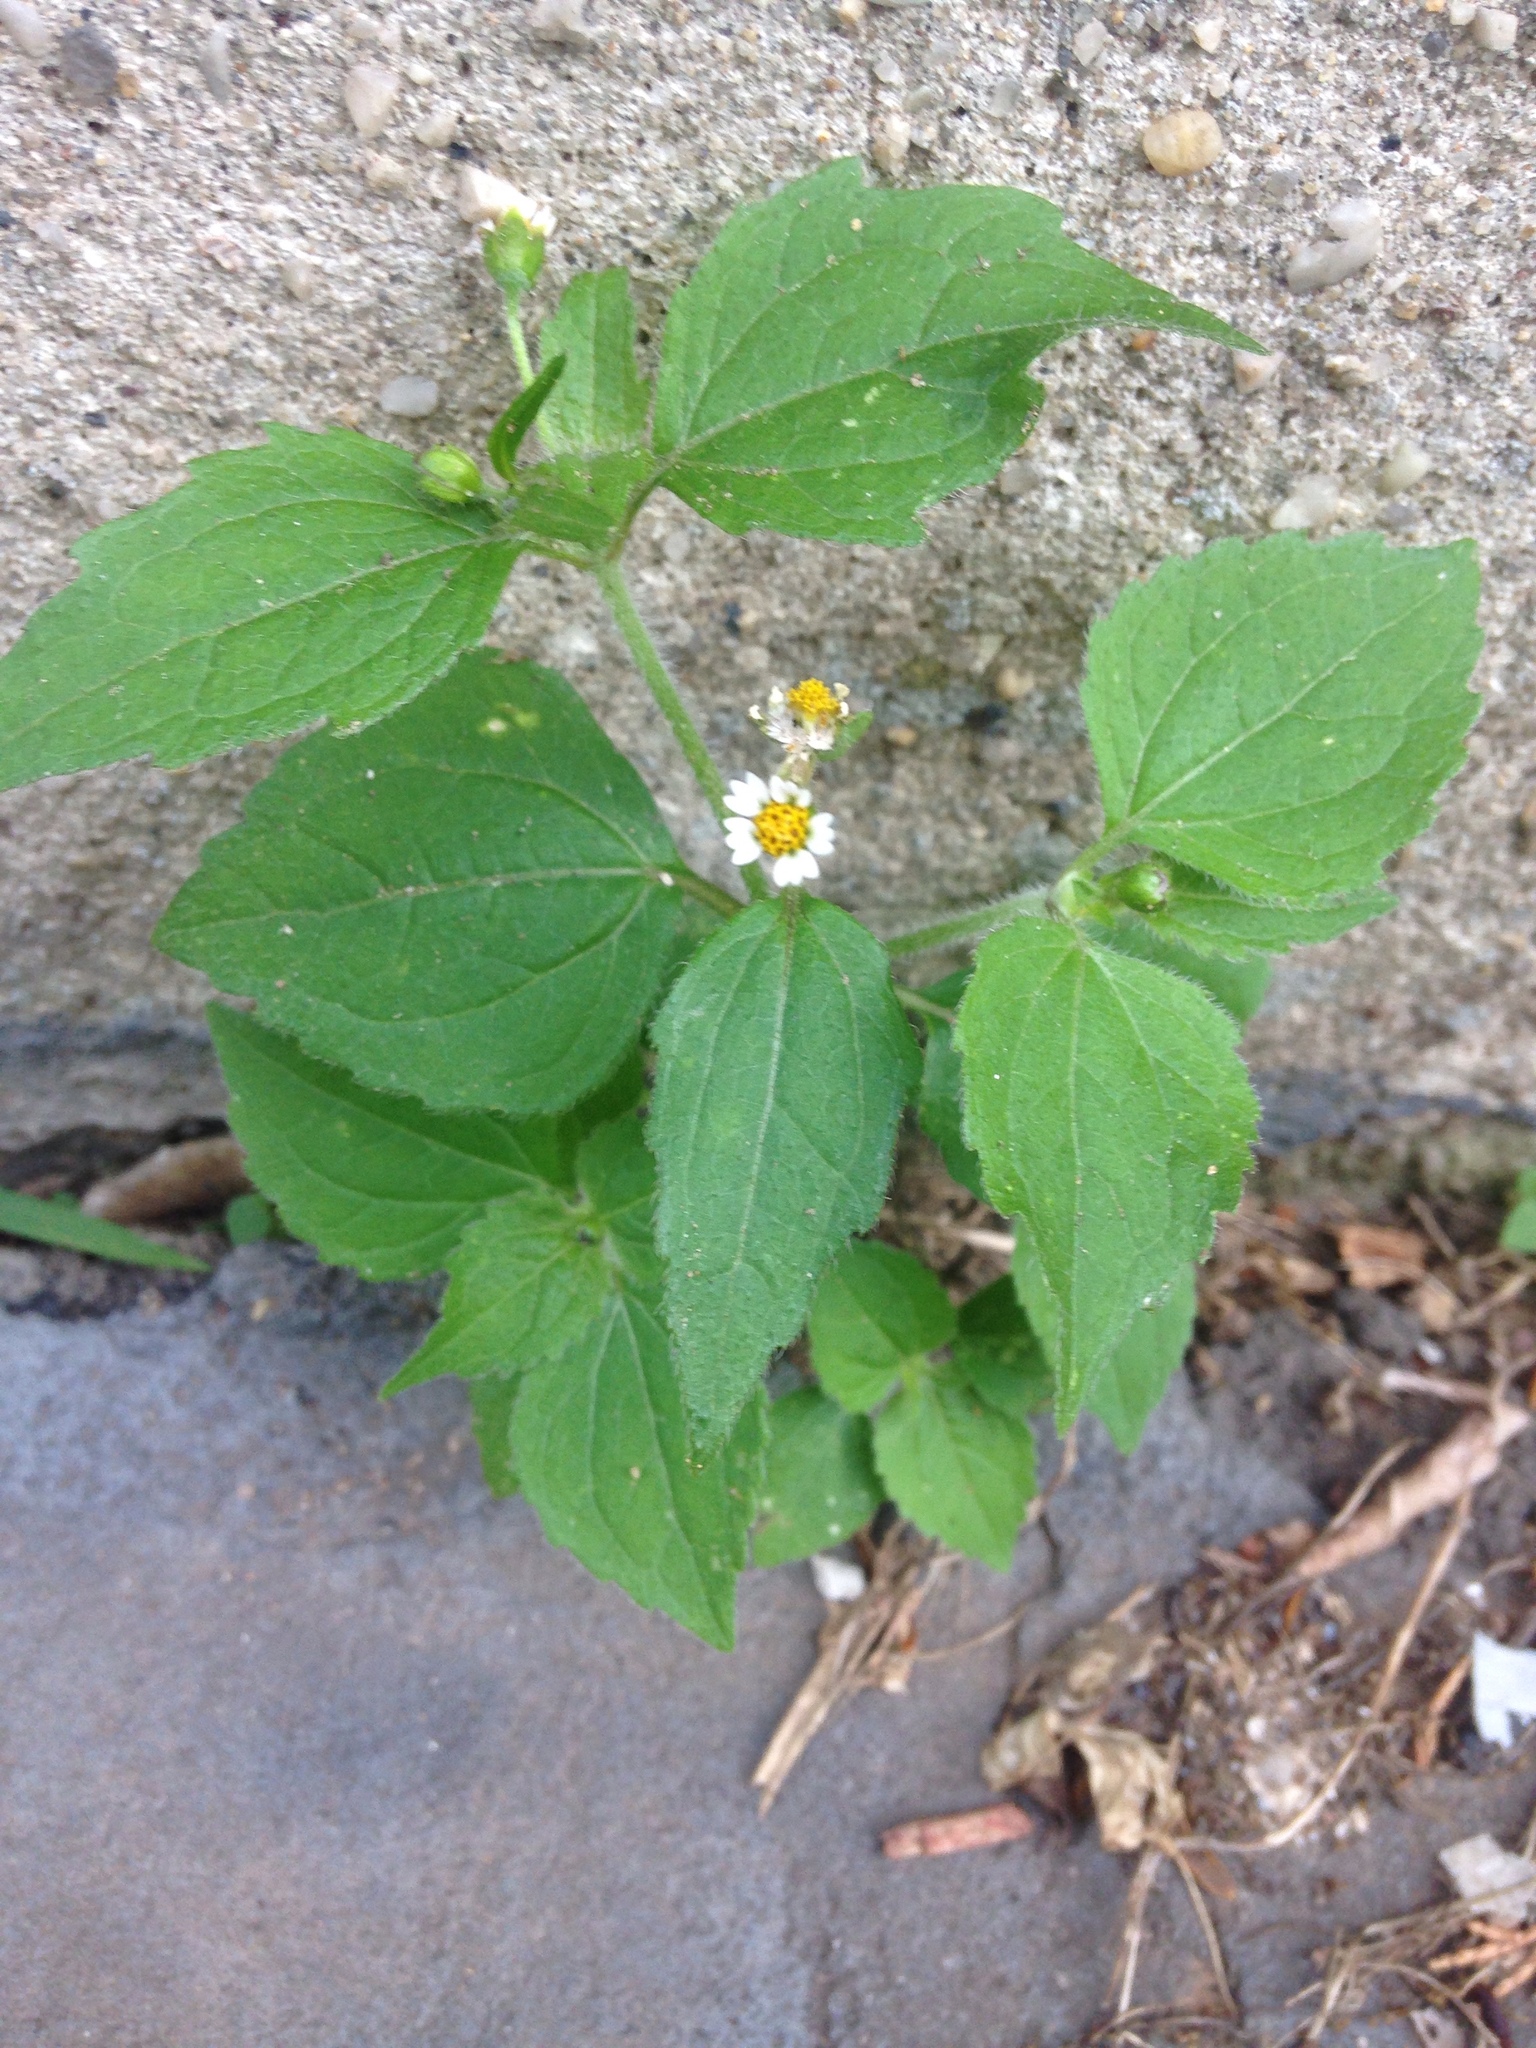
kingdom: Plantae
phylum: Tracheophyta
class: Magnoliopsida
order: Asterales
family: Asteraceae
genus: Galinsoga
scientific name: Galinsoga quadriradiata
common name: Shaggy soldier
